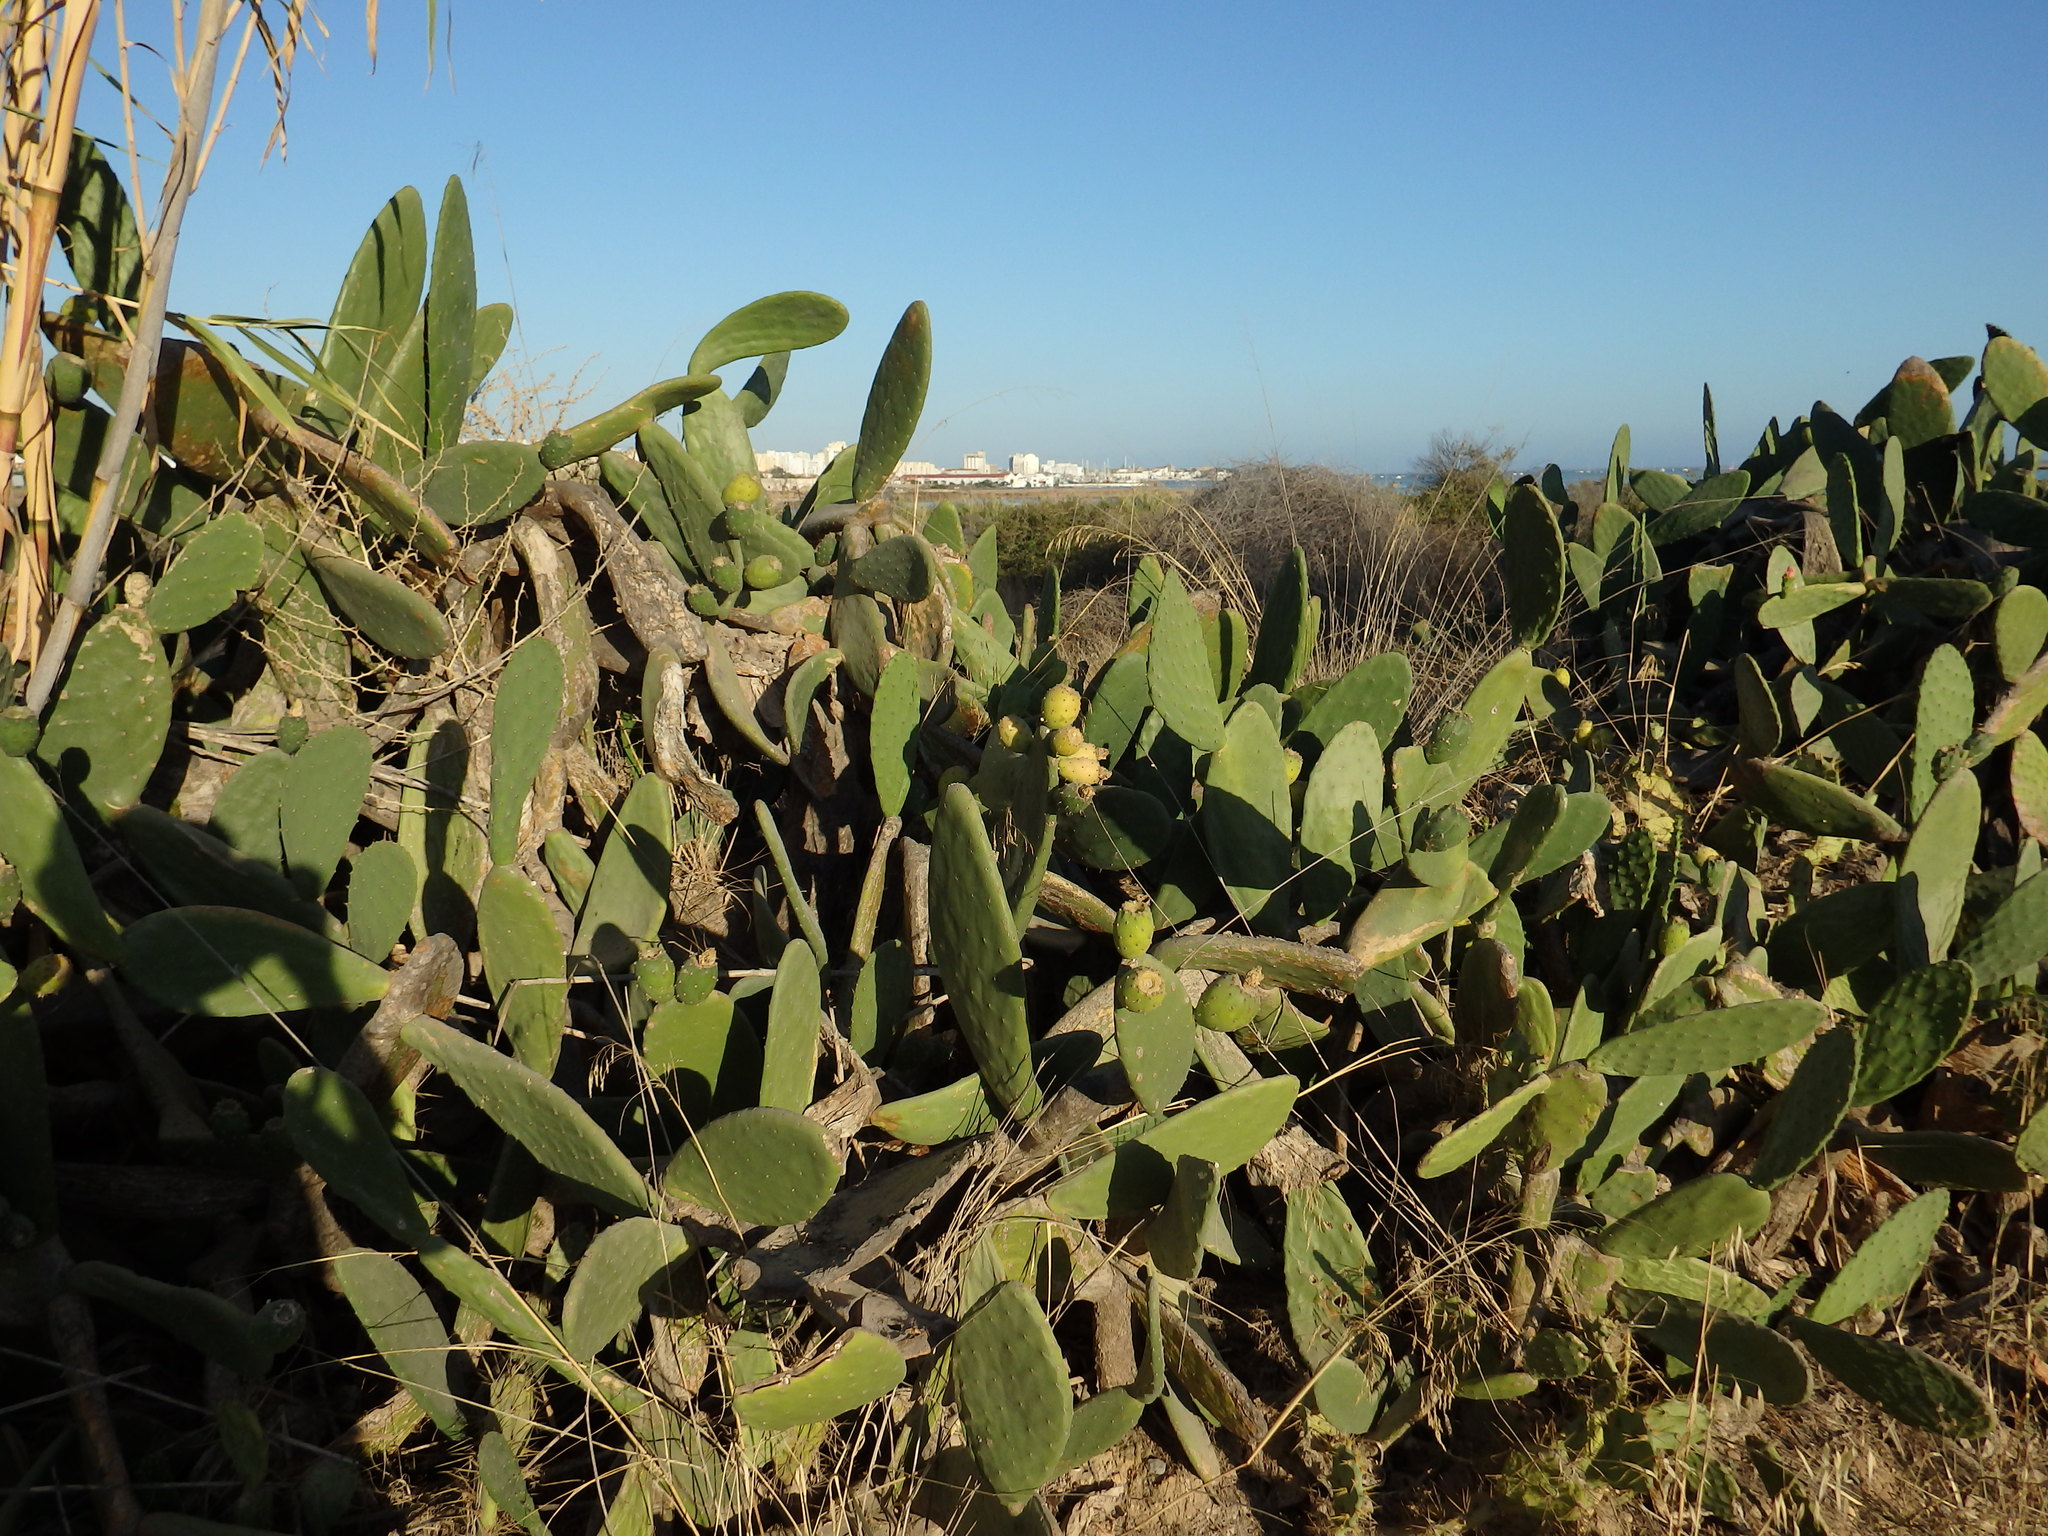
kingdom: Plantae
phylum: Tracheophyta
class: Magnoliopsida
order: Caryophyllales
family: Cactaceae
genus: Opuntia
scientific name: Opuntia ficus-indica
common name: Barbary fig
